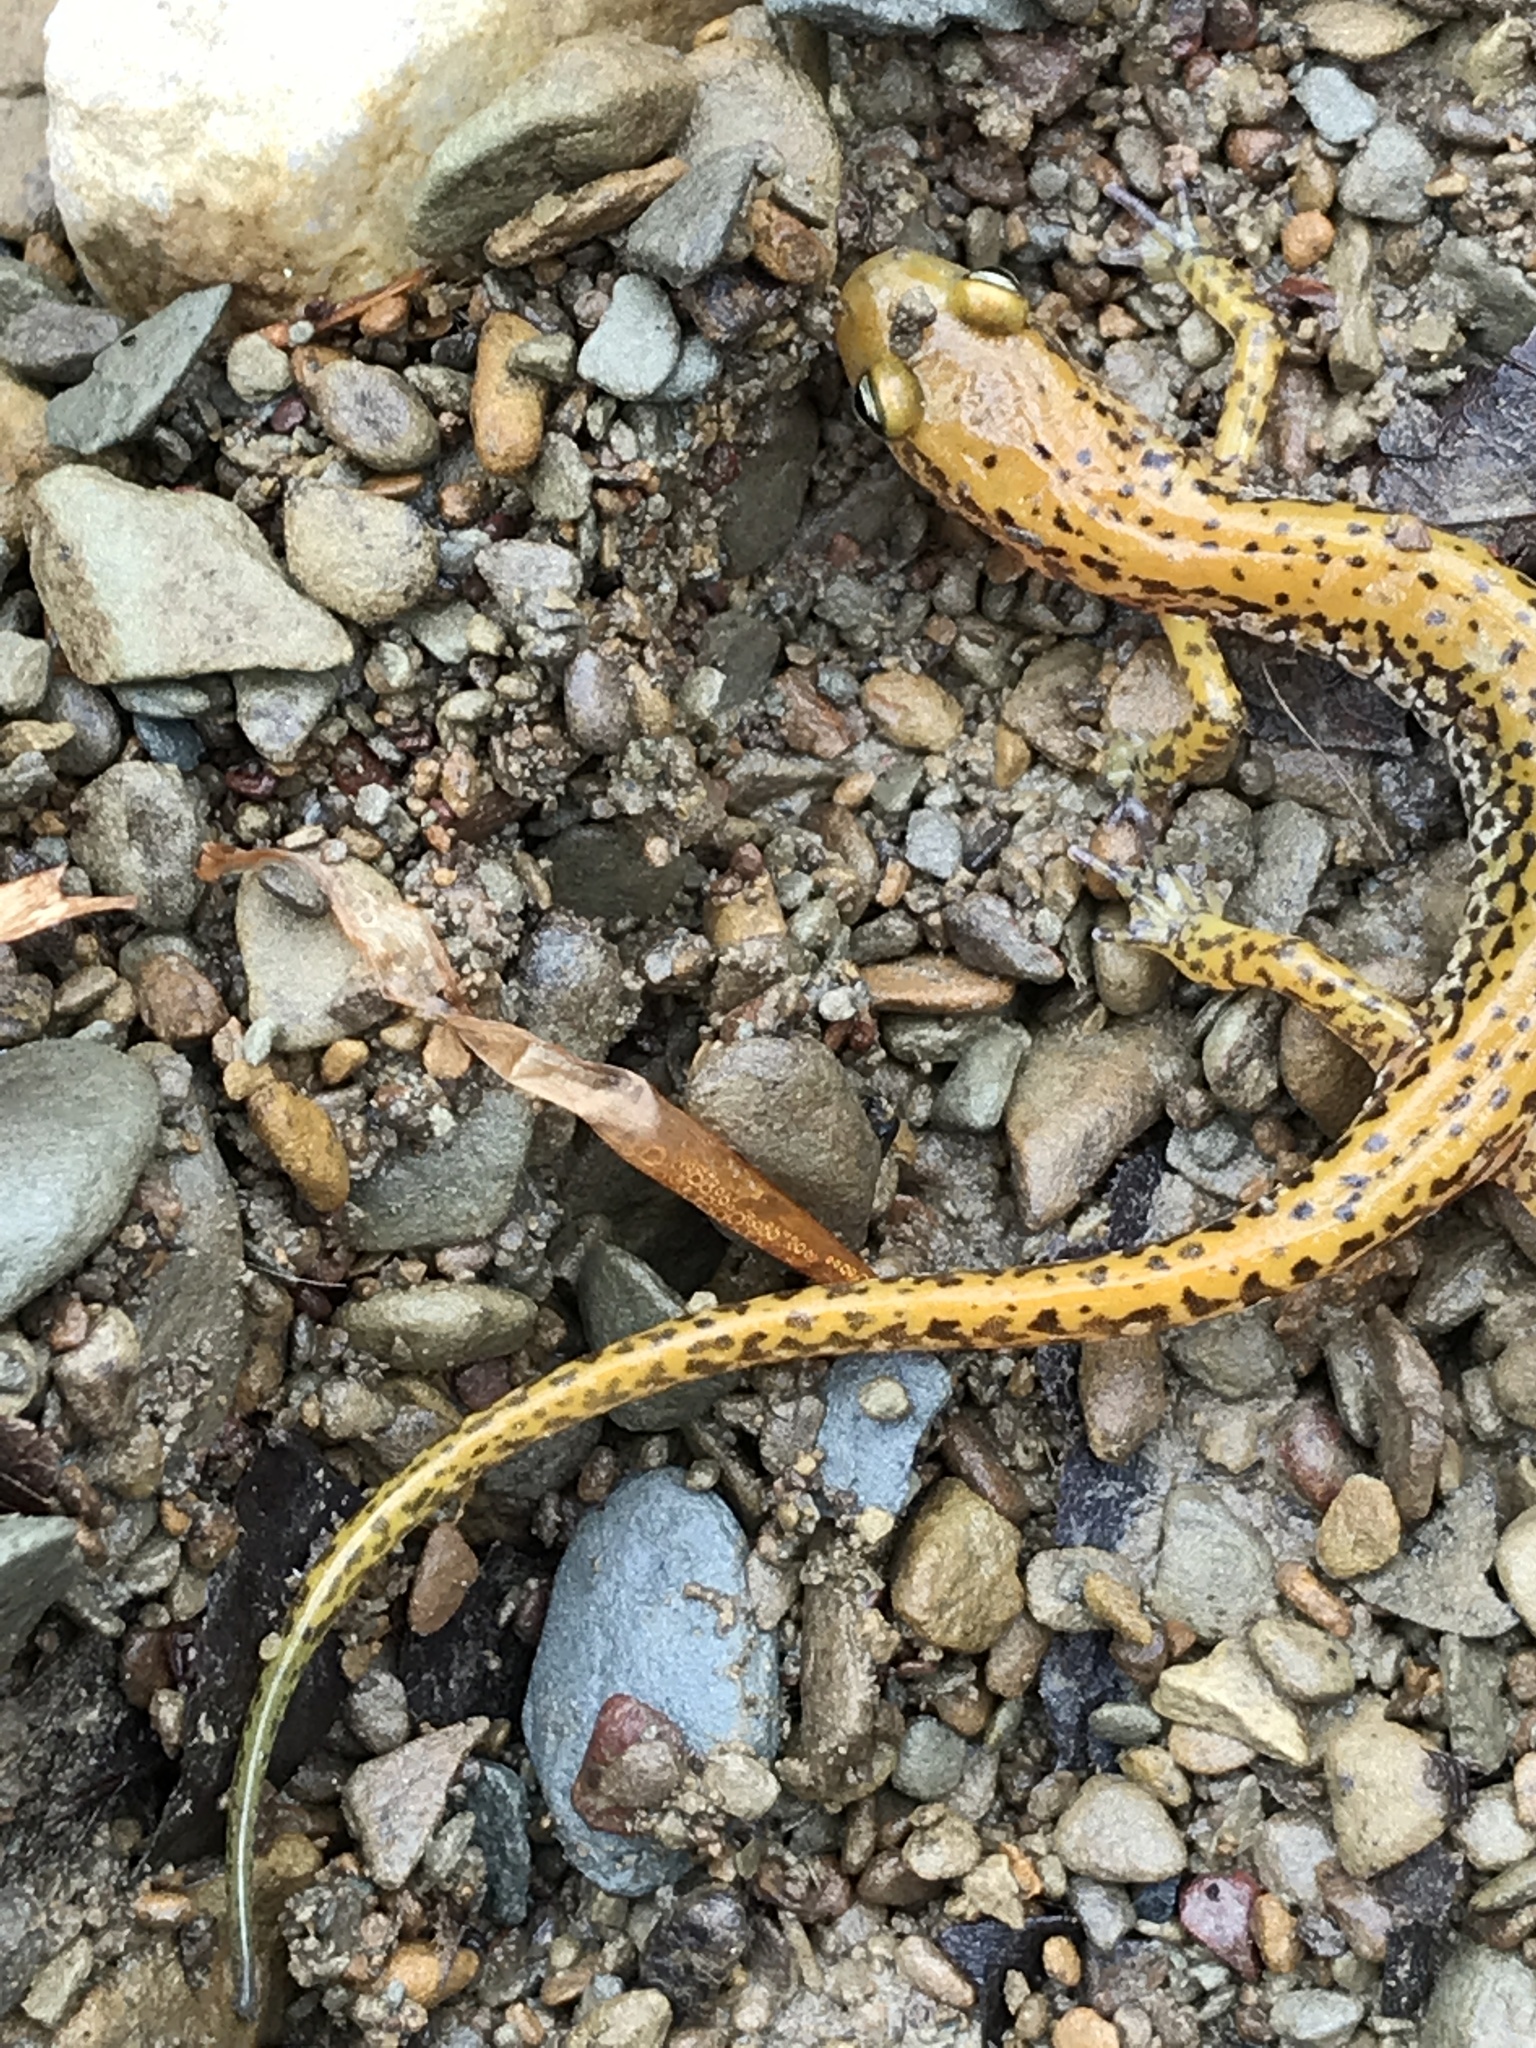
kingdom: Animalia
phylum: Chordata
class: Amphibia
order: Caudata
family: Plethodontidae
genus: Eurycea
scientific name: Eurycea longicauda
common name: Long-tailed salamander
